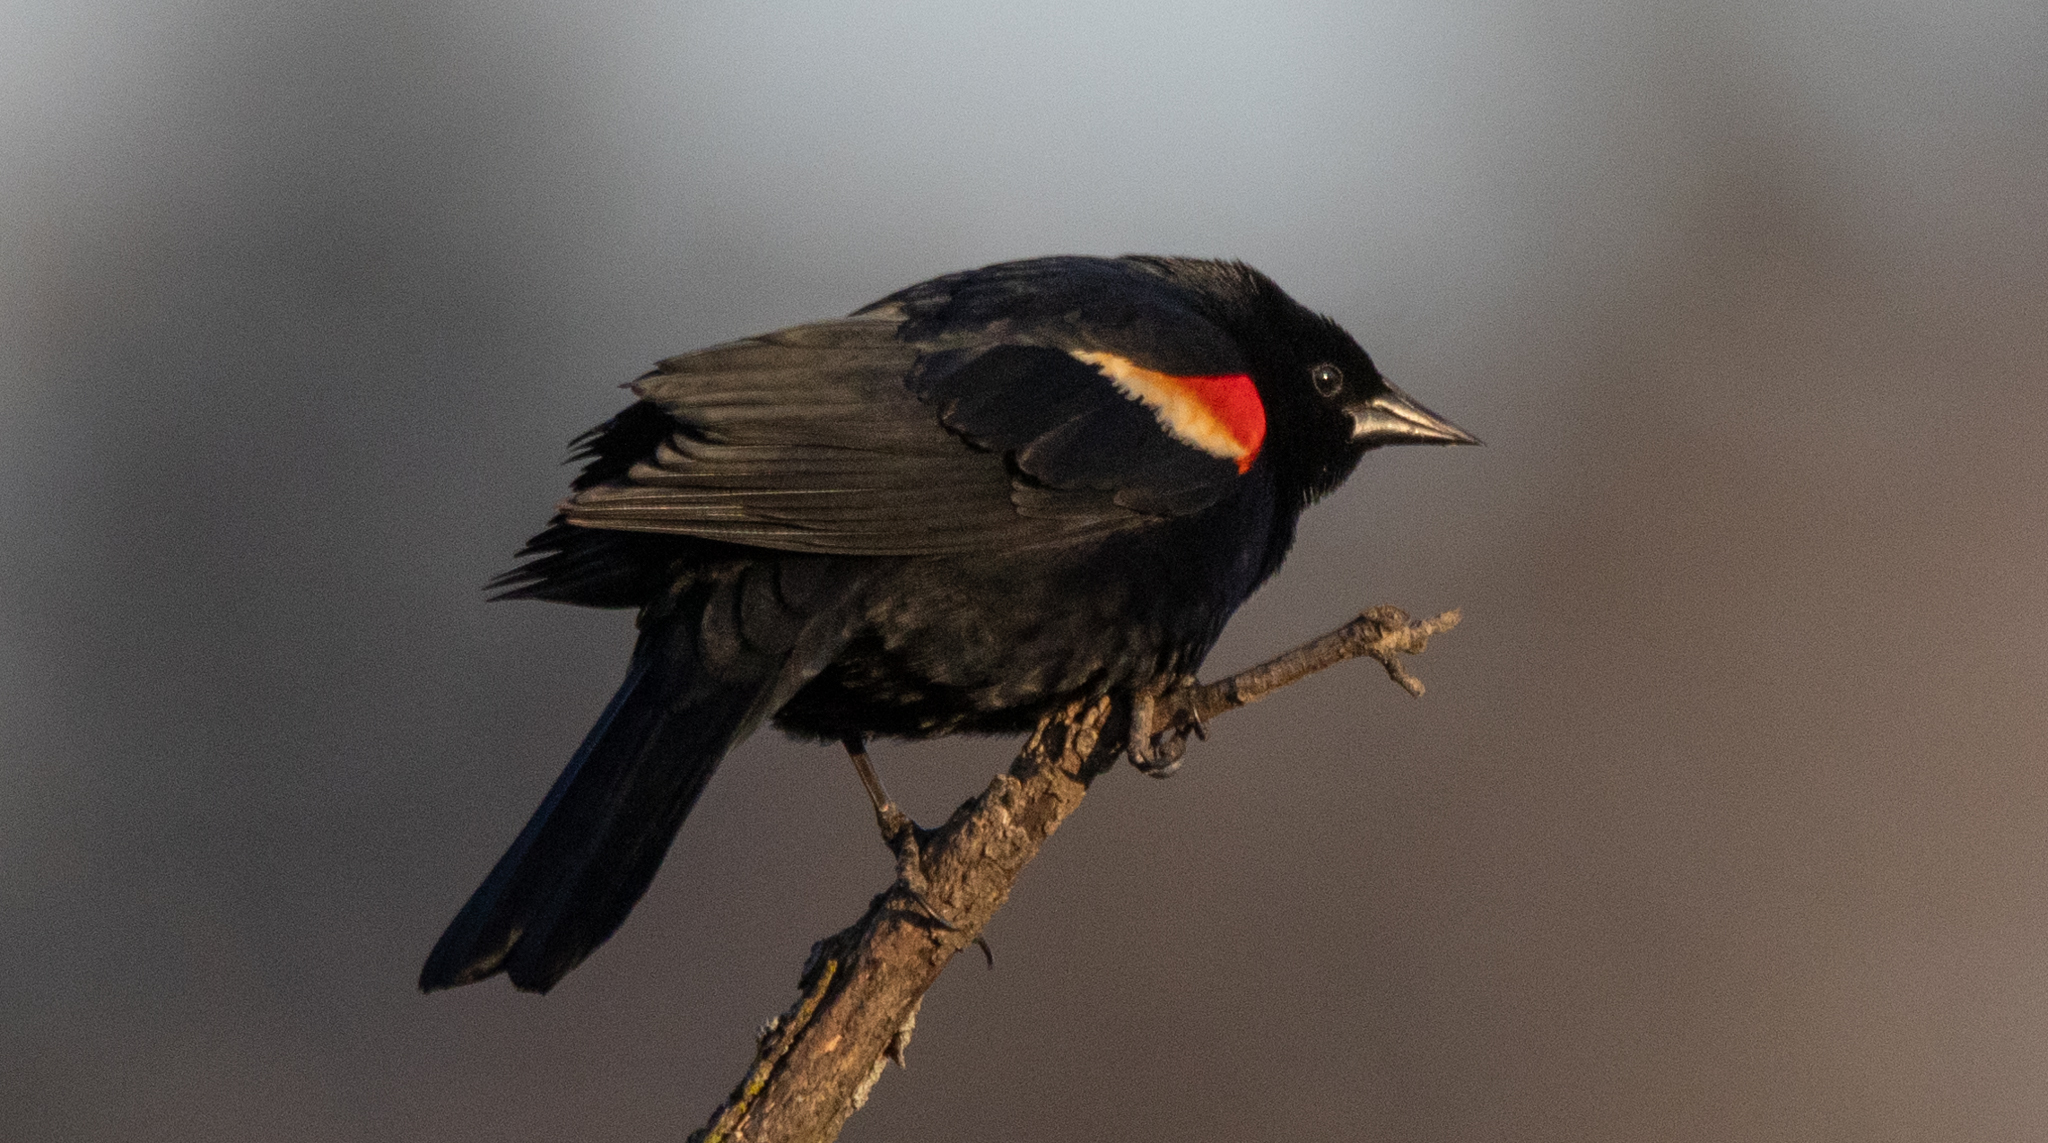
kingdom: Animalia
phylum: Chordata
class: Aves
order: Passeriformes
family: Icteridae
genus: Agelaius
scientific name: Agelaius phoeniceus
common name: Red-winged blackbird
